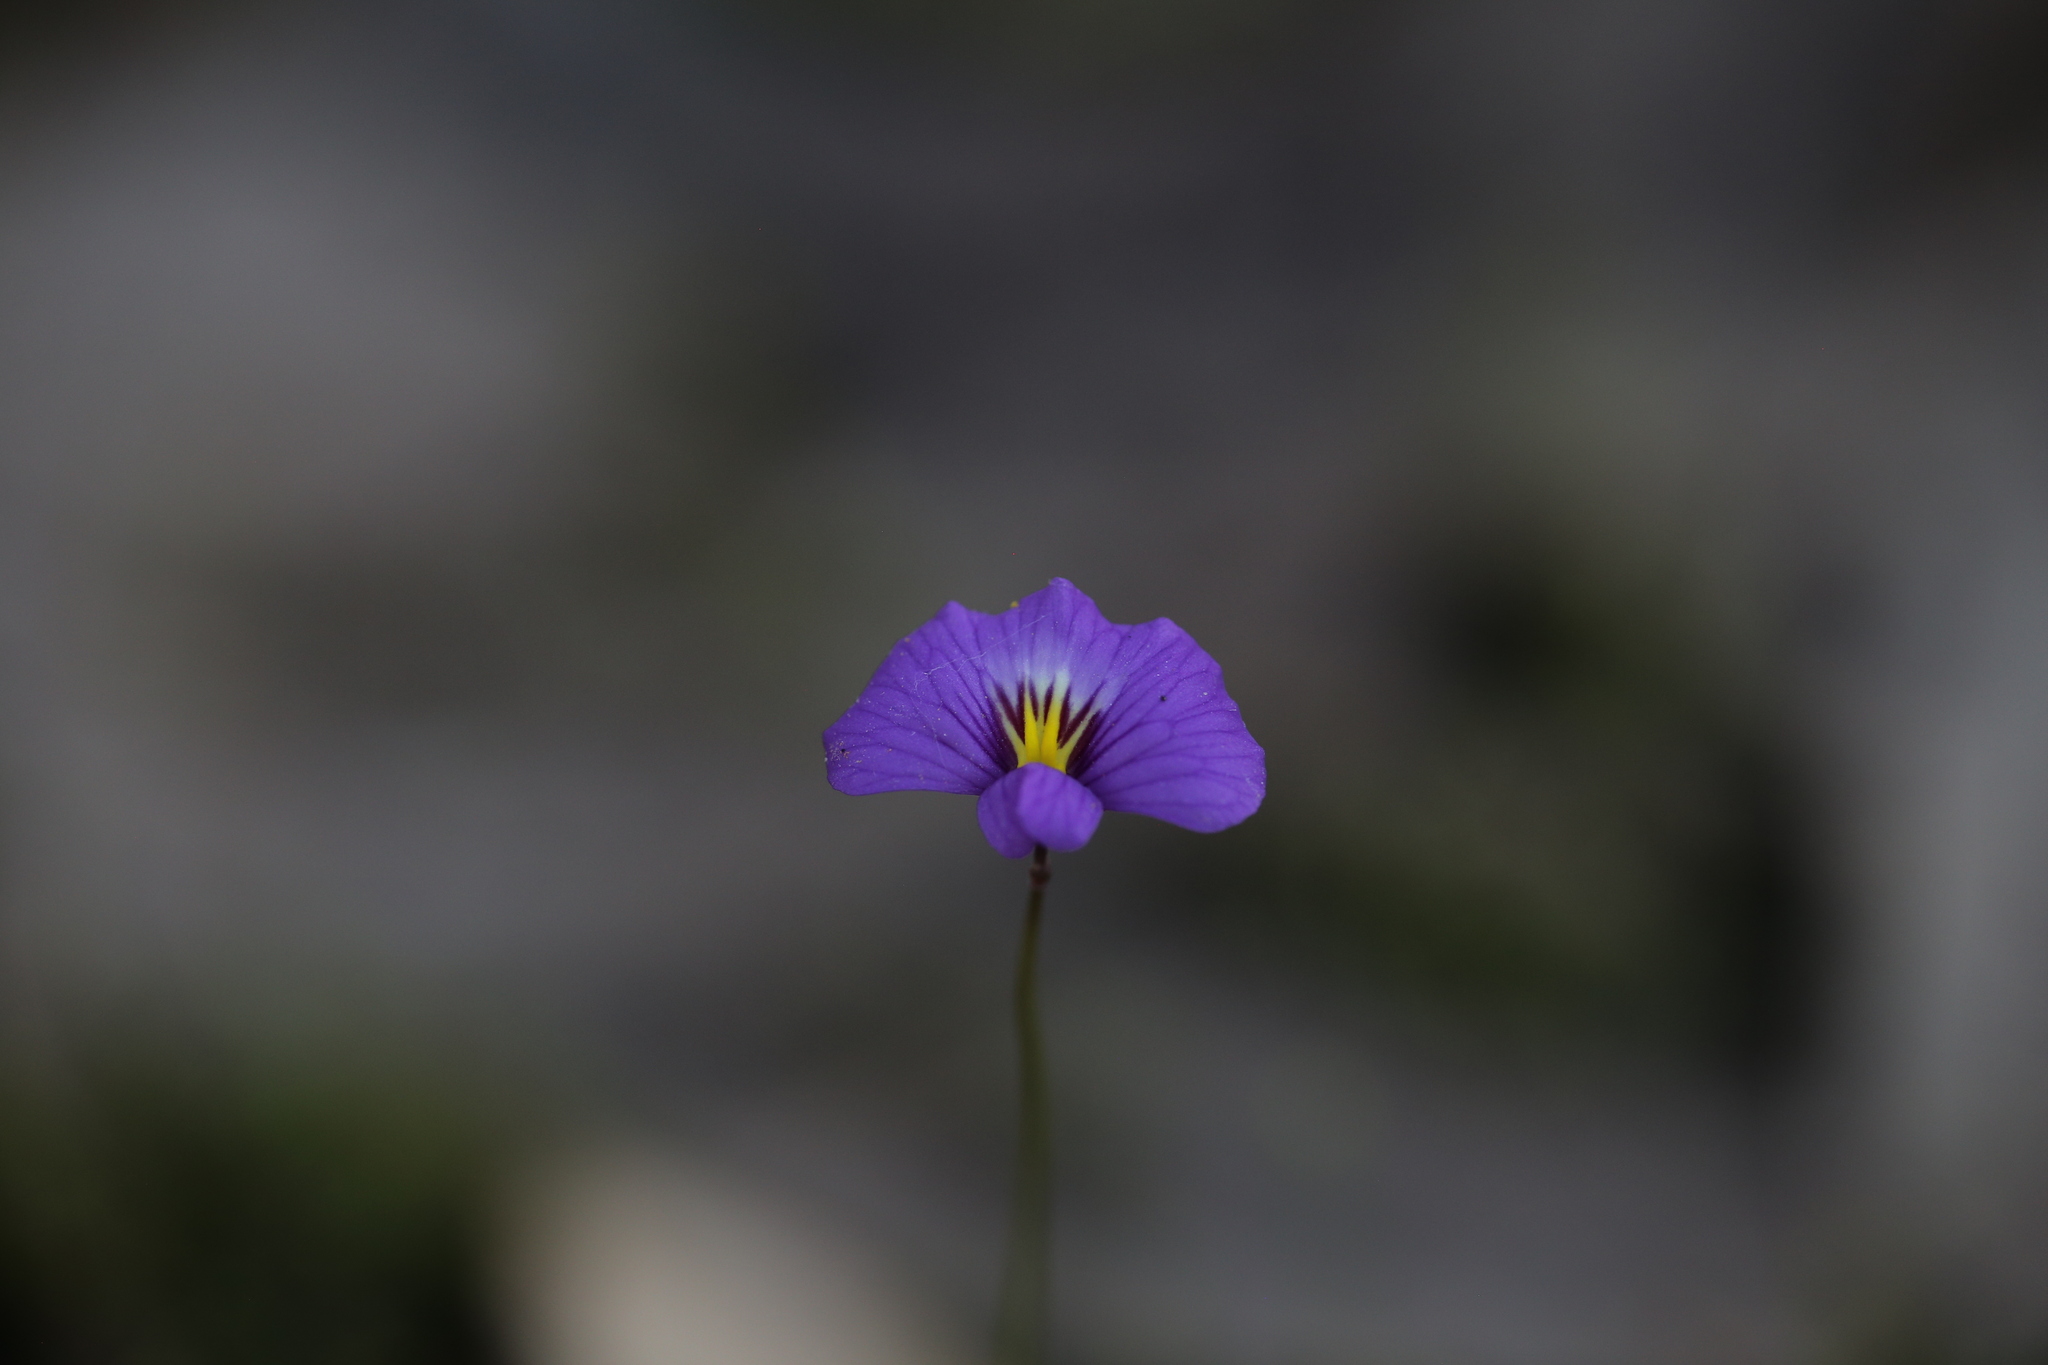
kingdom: Plantae
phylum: Tracheophyta
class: Magnoliopsida
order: Lamiales
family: Lentibulariaceae
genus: Utricularia
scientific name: Utricularia petertaylorii
